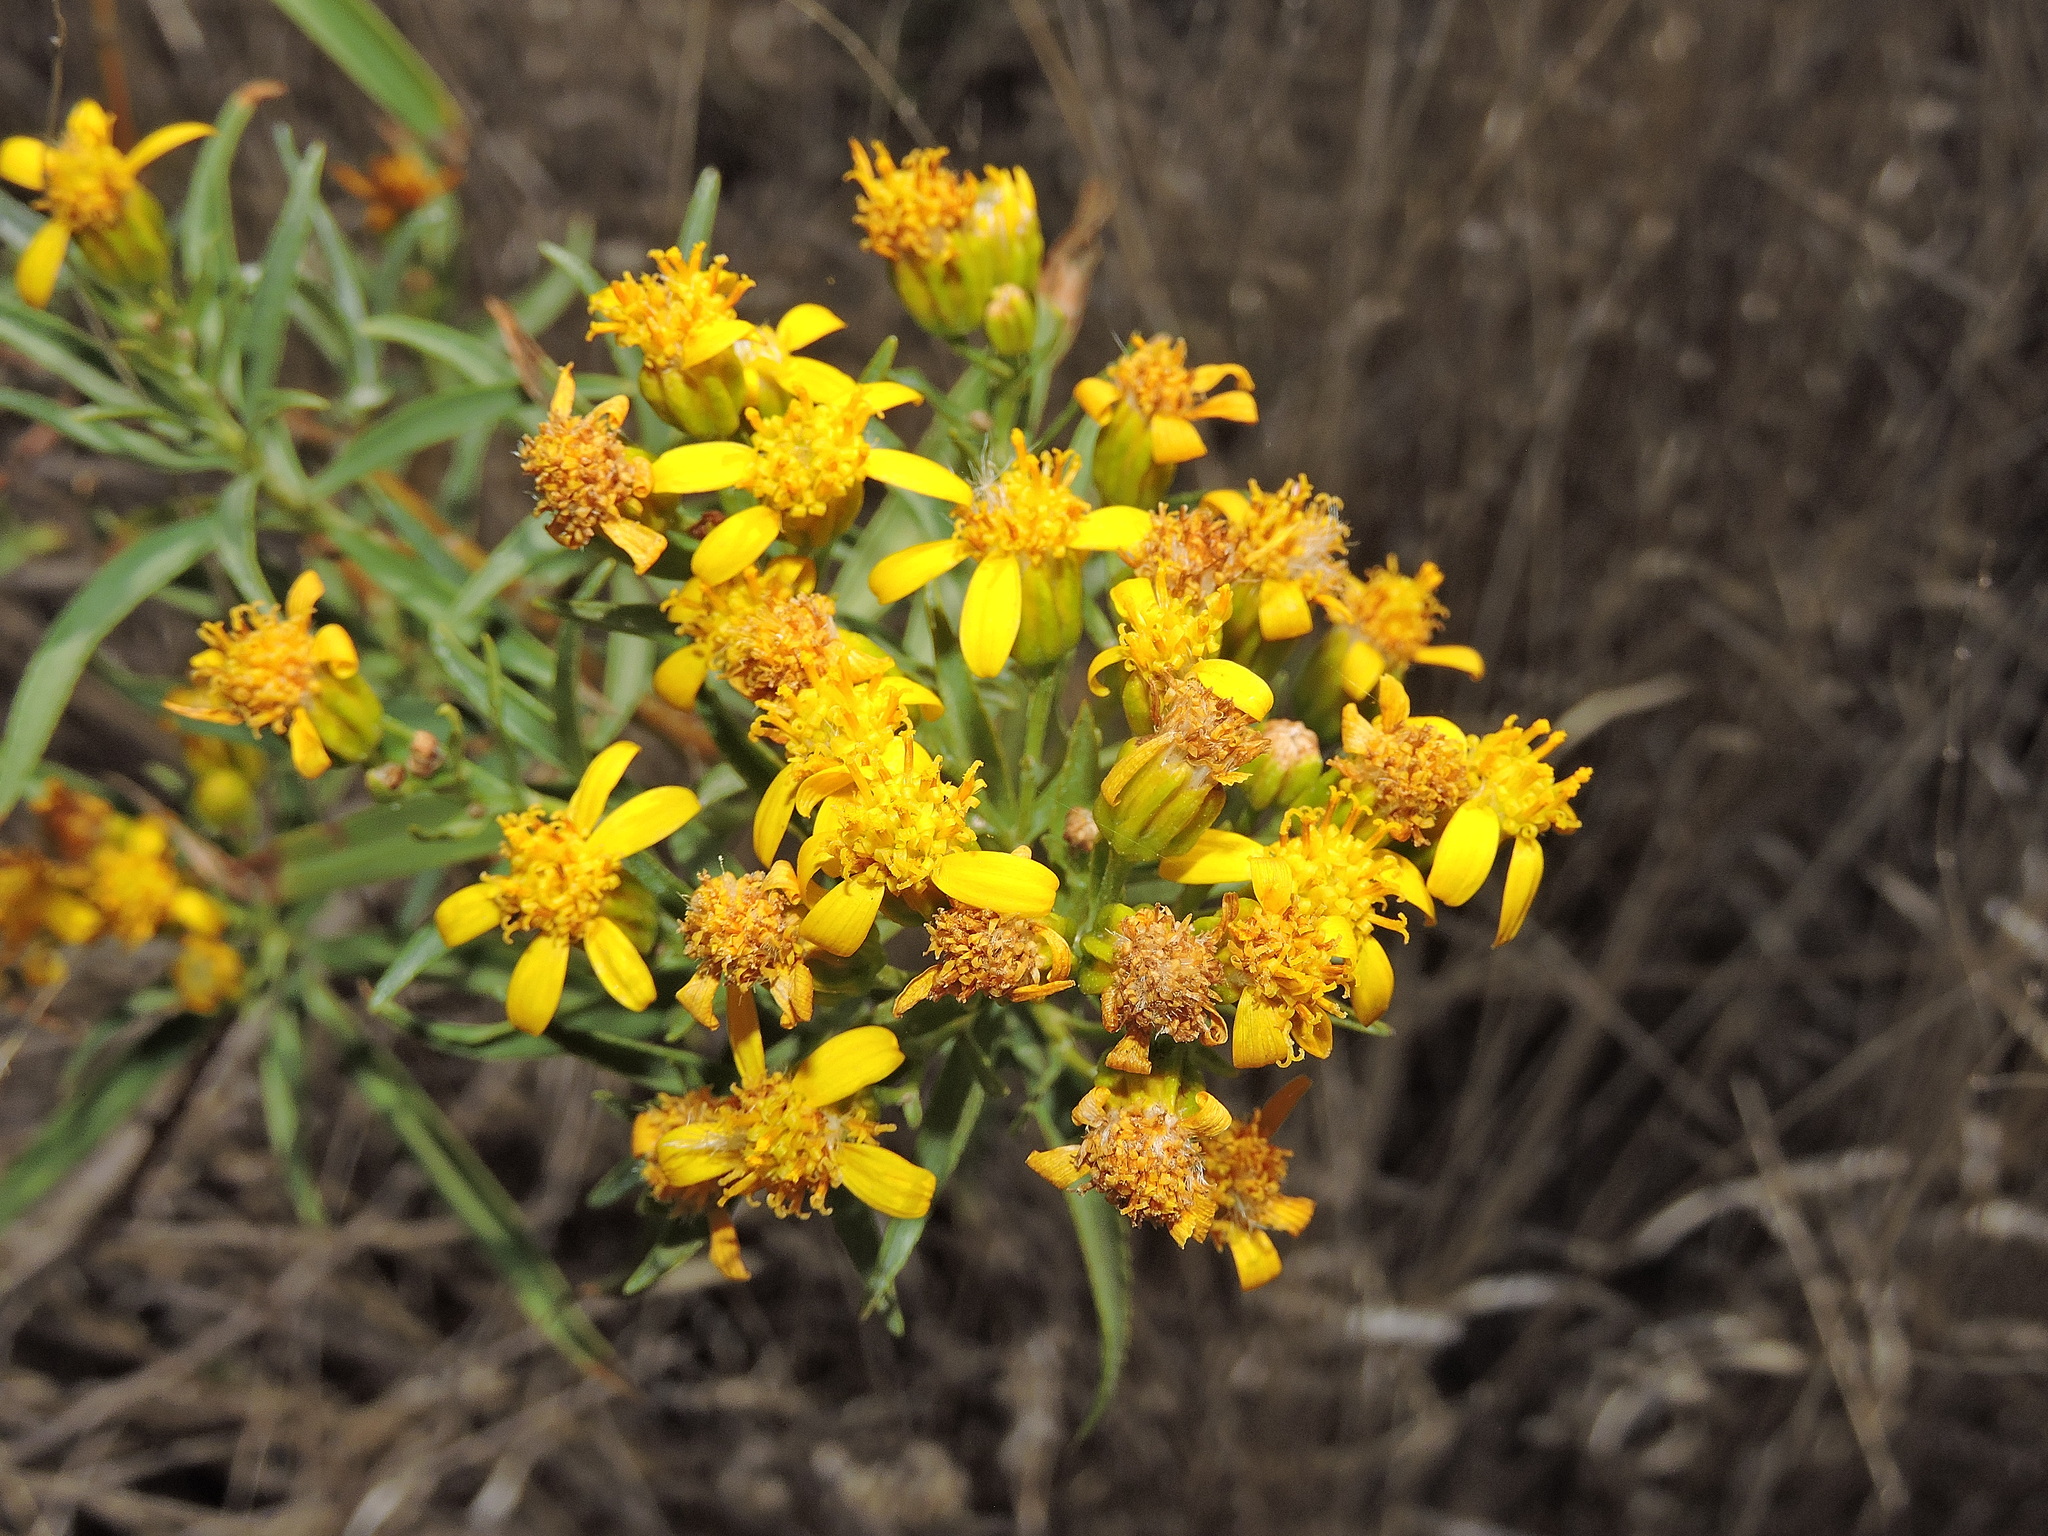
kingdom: Plantae
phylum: Tracheophyta
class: Magnoliopsida
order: Asterales
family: Asteraceae
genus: Barkleyanthus
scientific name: Barkleyanthus salicifolius
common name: Willow ragwort
